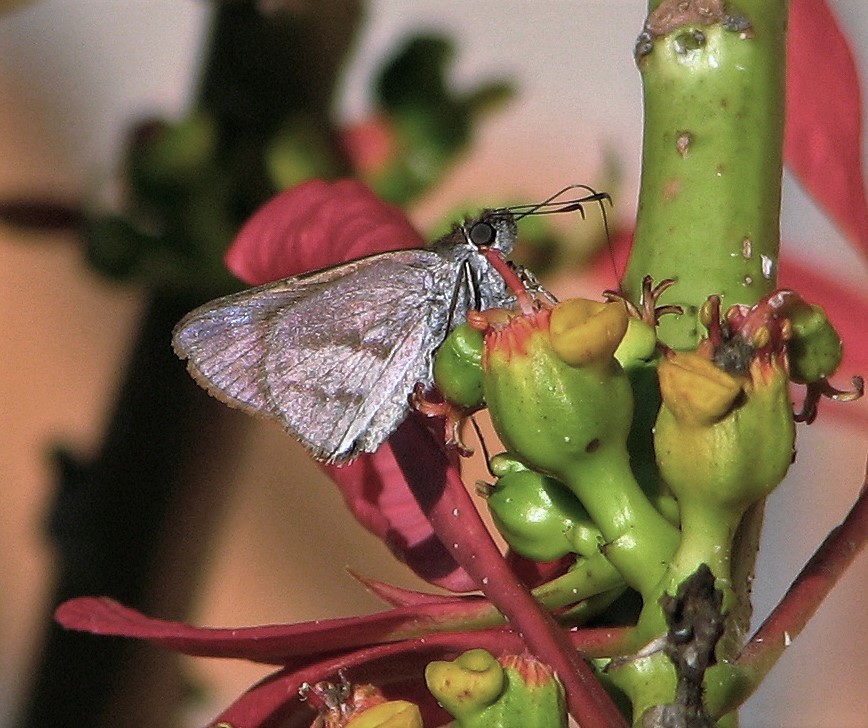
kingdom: Animalia
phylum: Arthropoda
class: Insecta
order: Lepidoptera
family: Hesperiidae
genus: Paracarystus
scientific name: Paracarystus evansi
